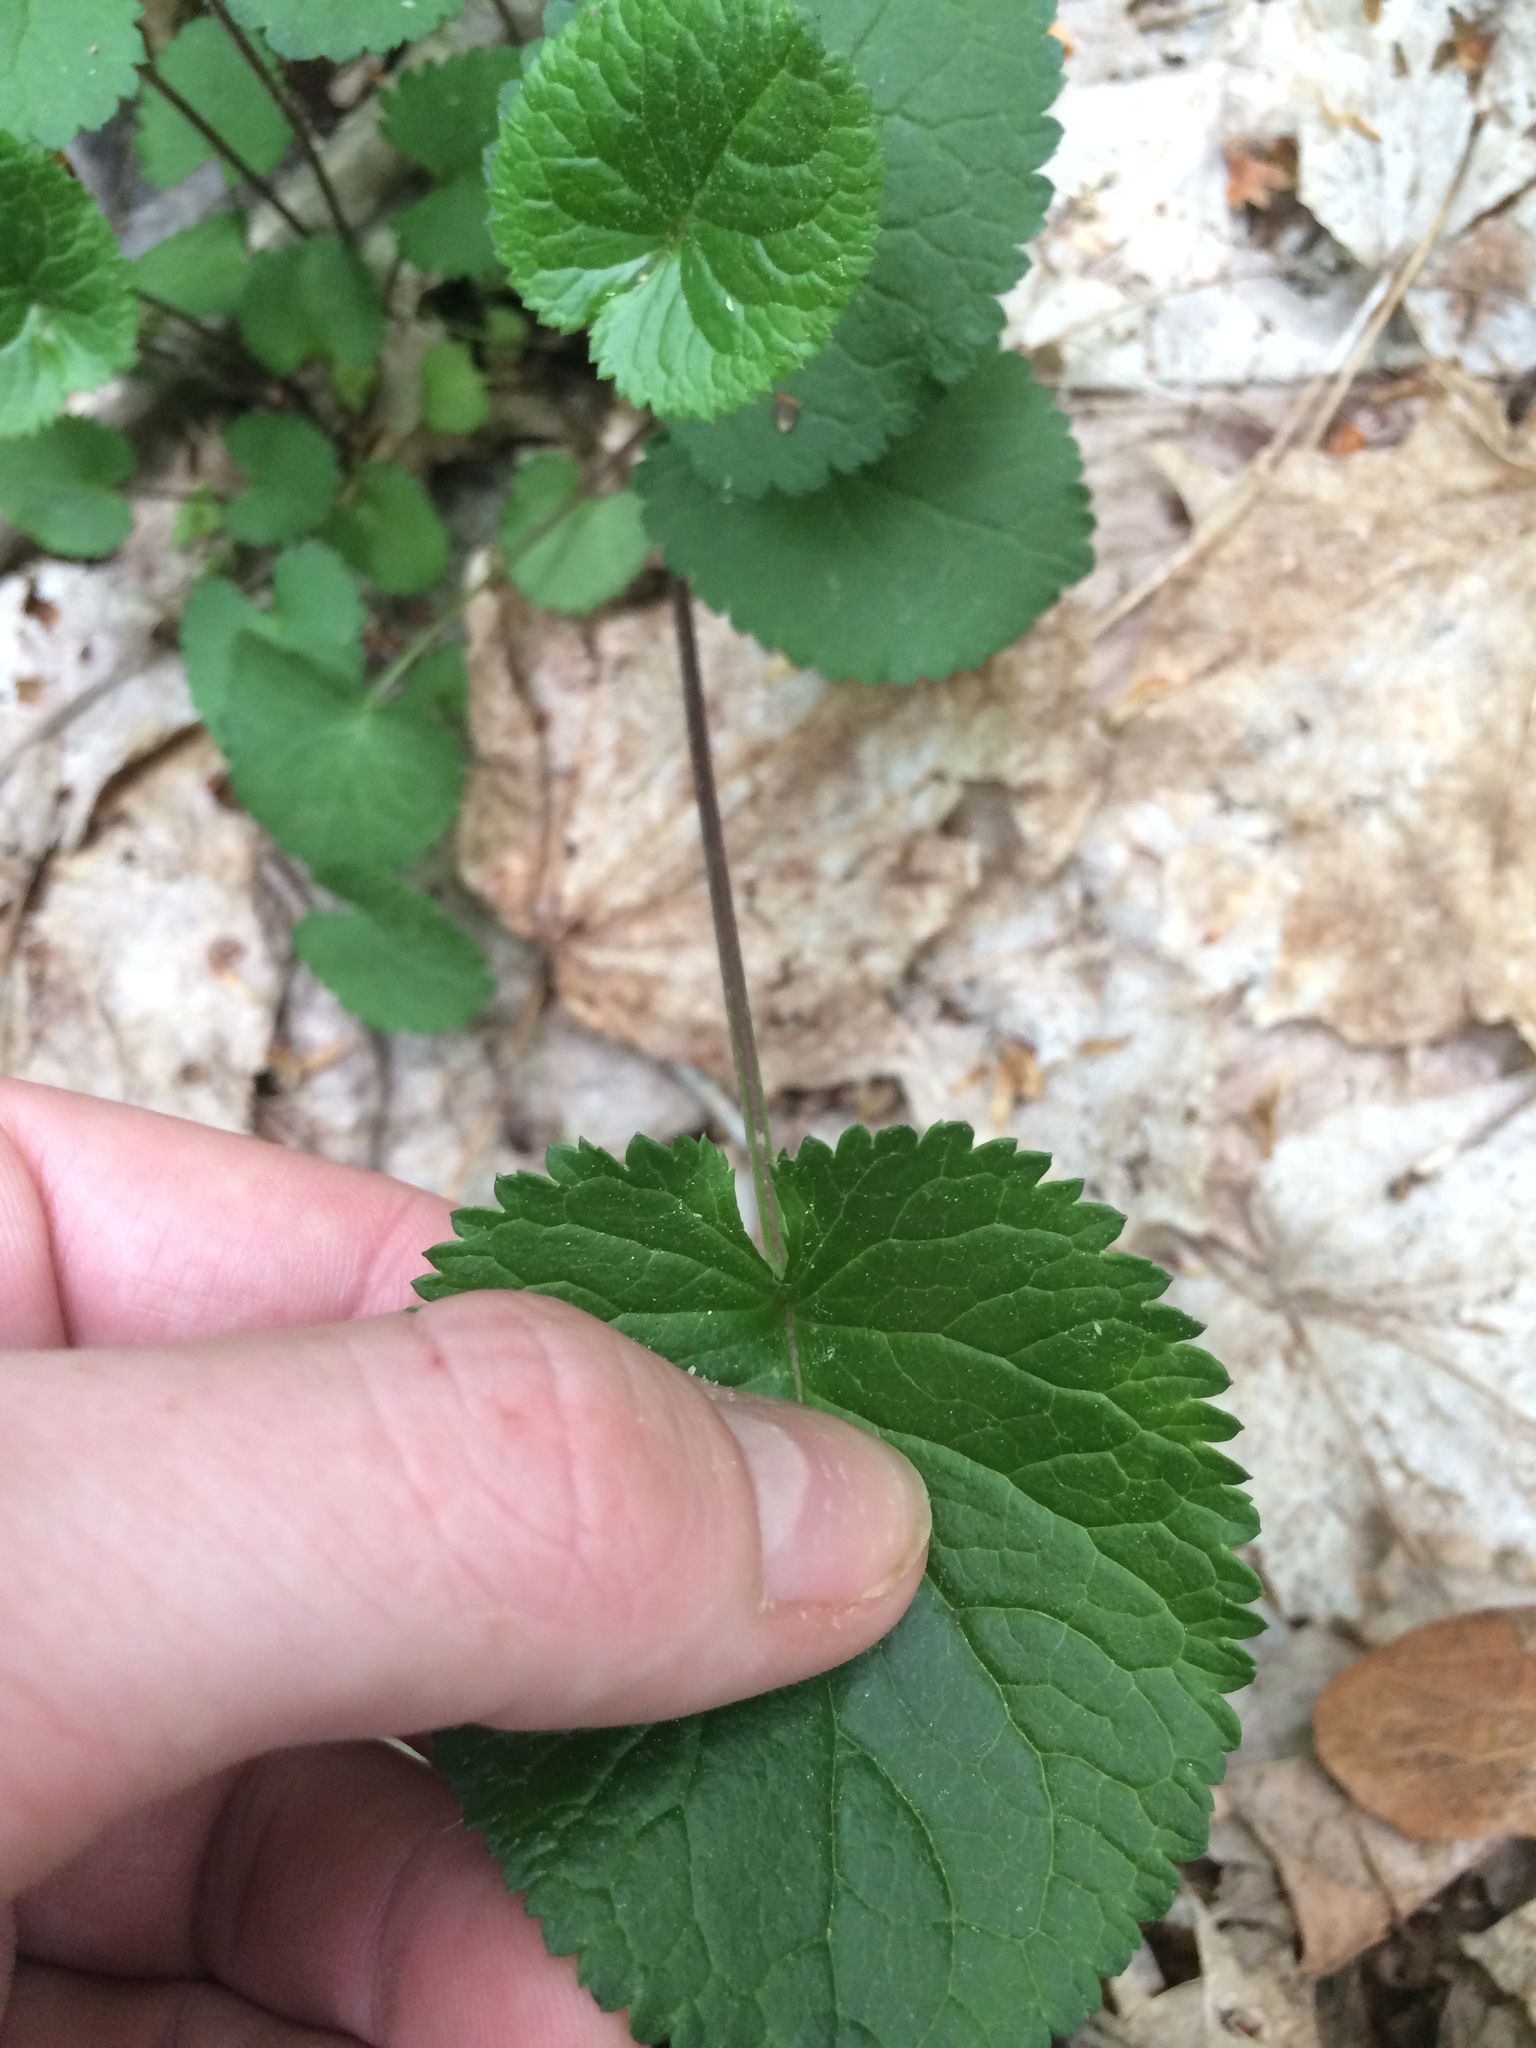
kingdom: Plantae
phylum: Tracheophyta
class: Magnoliopsida
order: Asterales
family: Asteraceae
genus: Packera
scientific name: Packera aurea
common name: Golden groundsel
